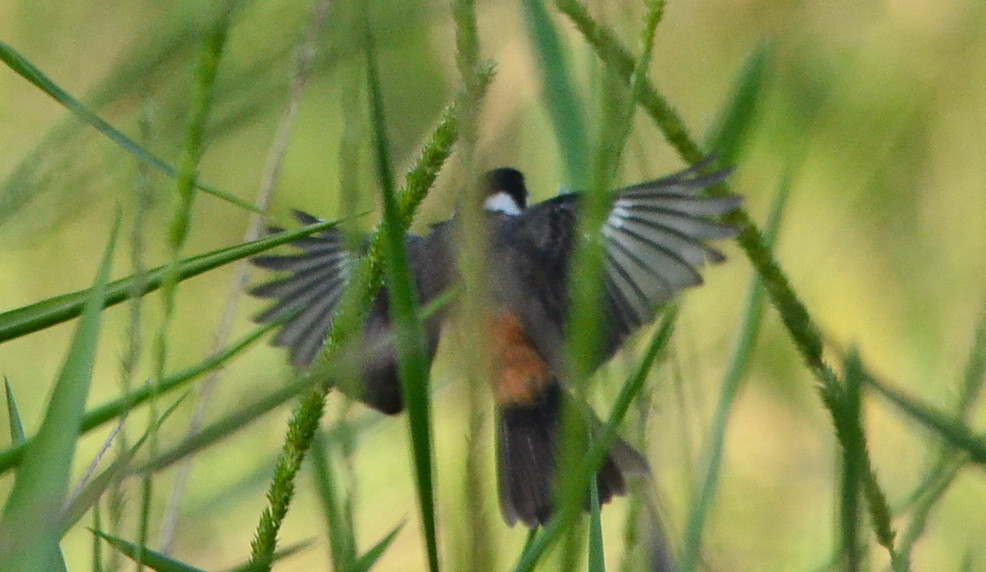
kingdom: Animalia
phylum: Chordata
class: Aves
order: Passeriformes
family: Thraupidae
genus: Sporophila
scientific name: Sporophila torqueola
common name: White-collared seedeater
